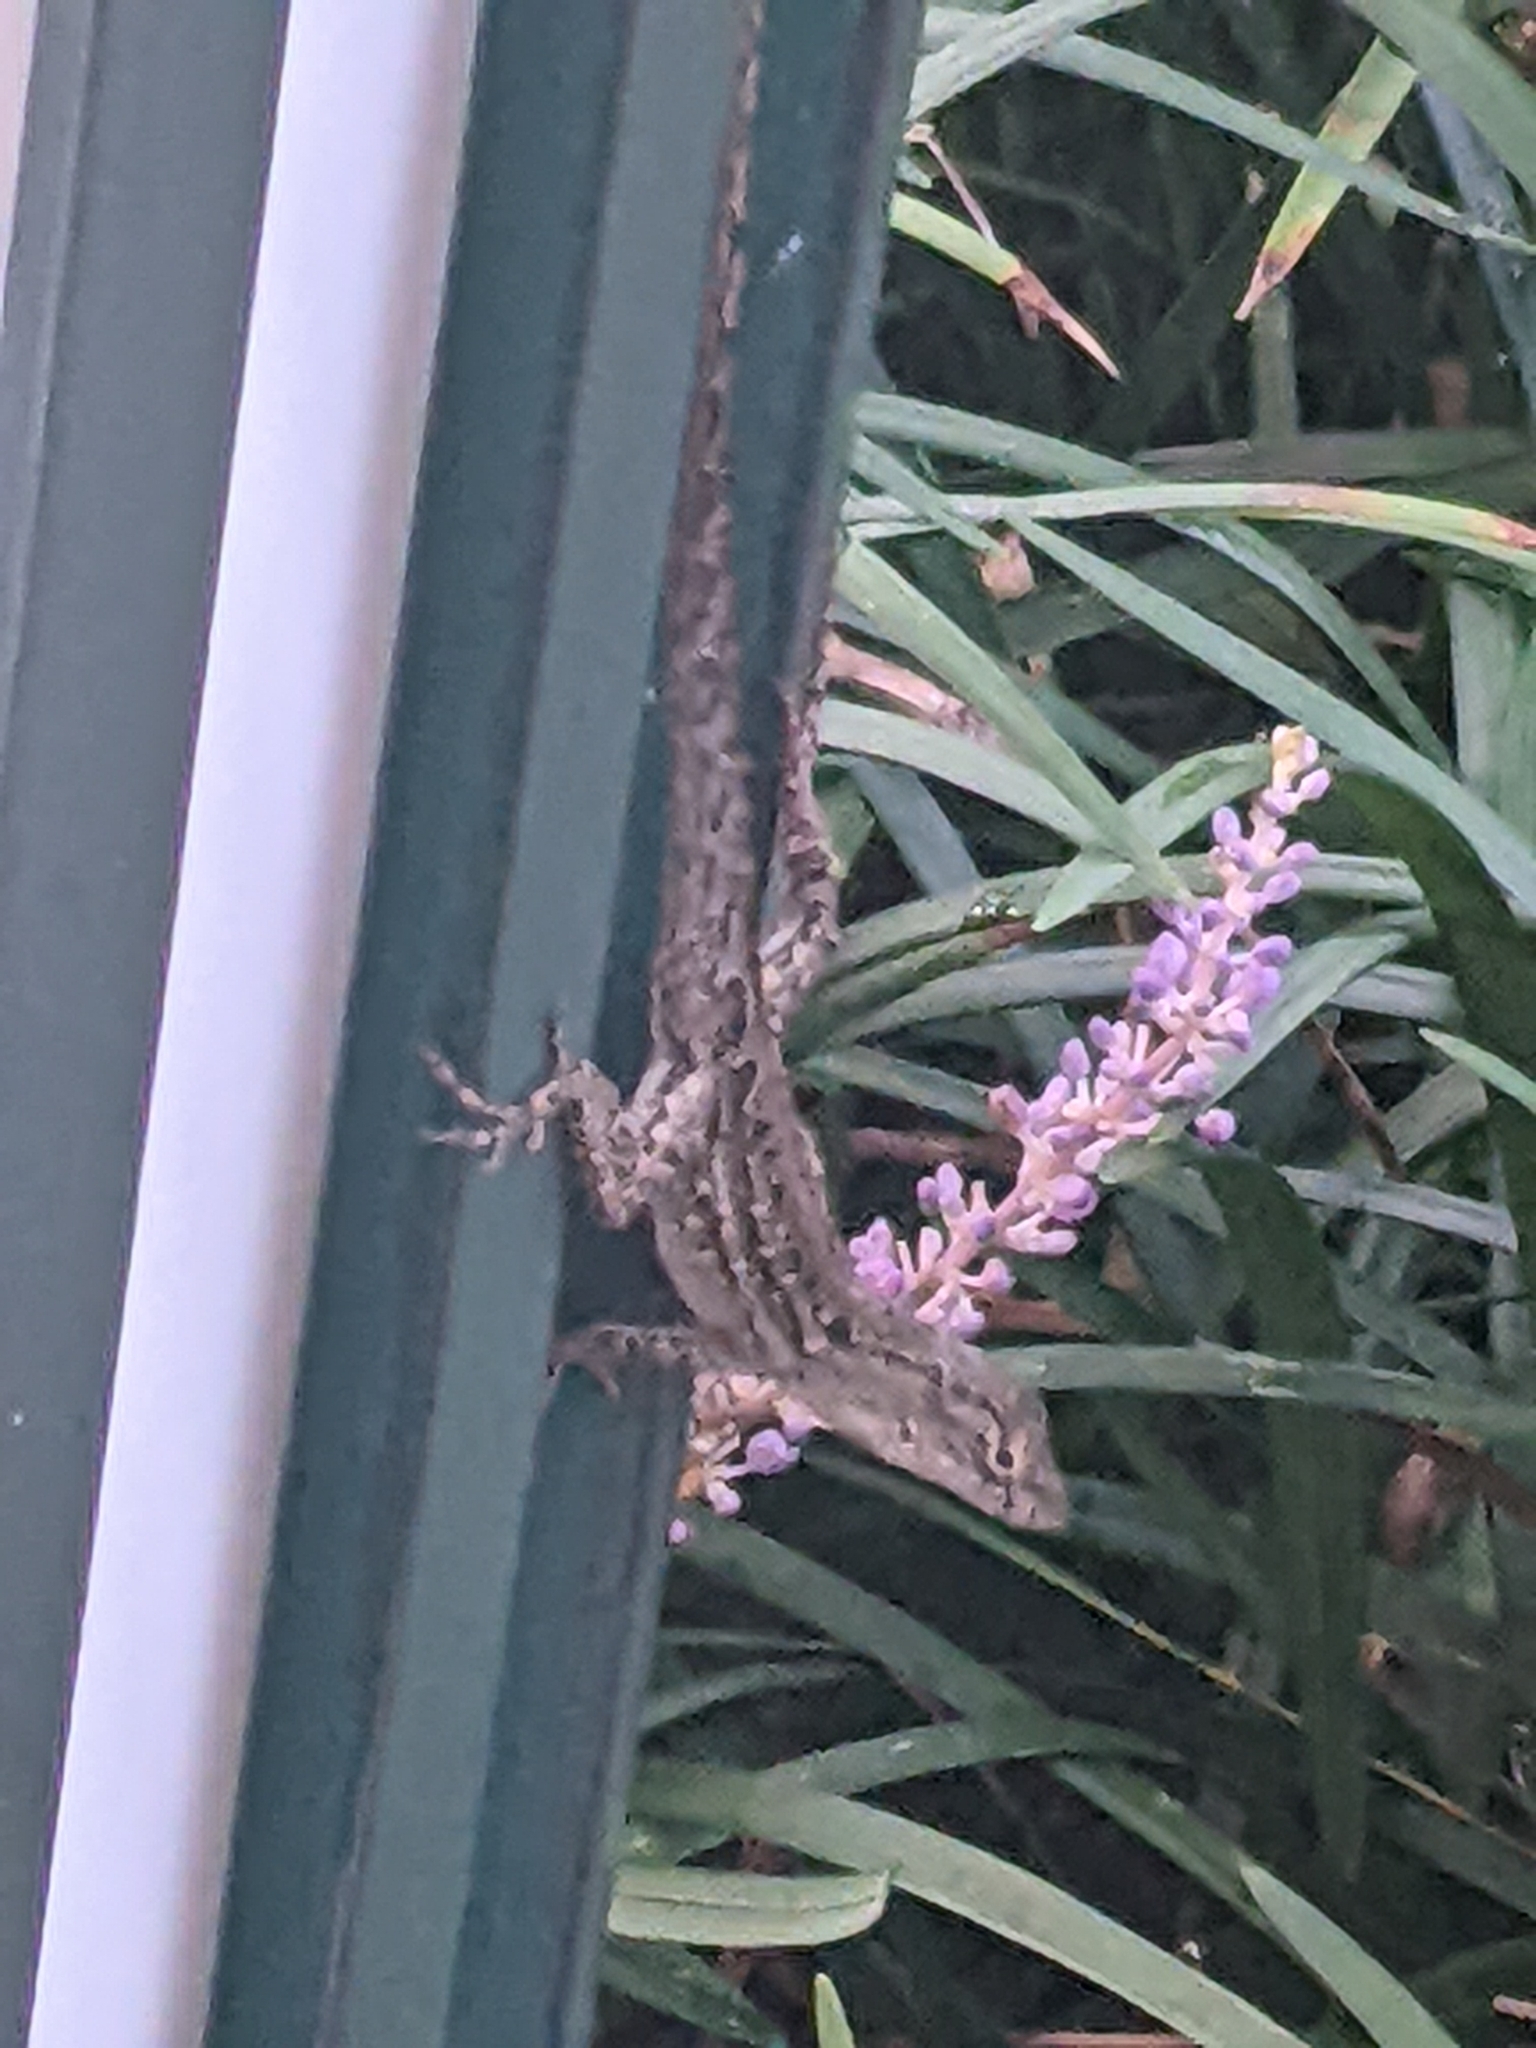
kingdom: Animalia
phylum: Chordata
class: Squamata
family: Dactyloidae
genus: Anolis
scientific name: Anolis sagrei
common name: Brown anole
